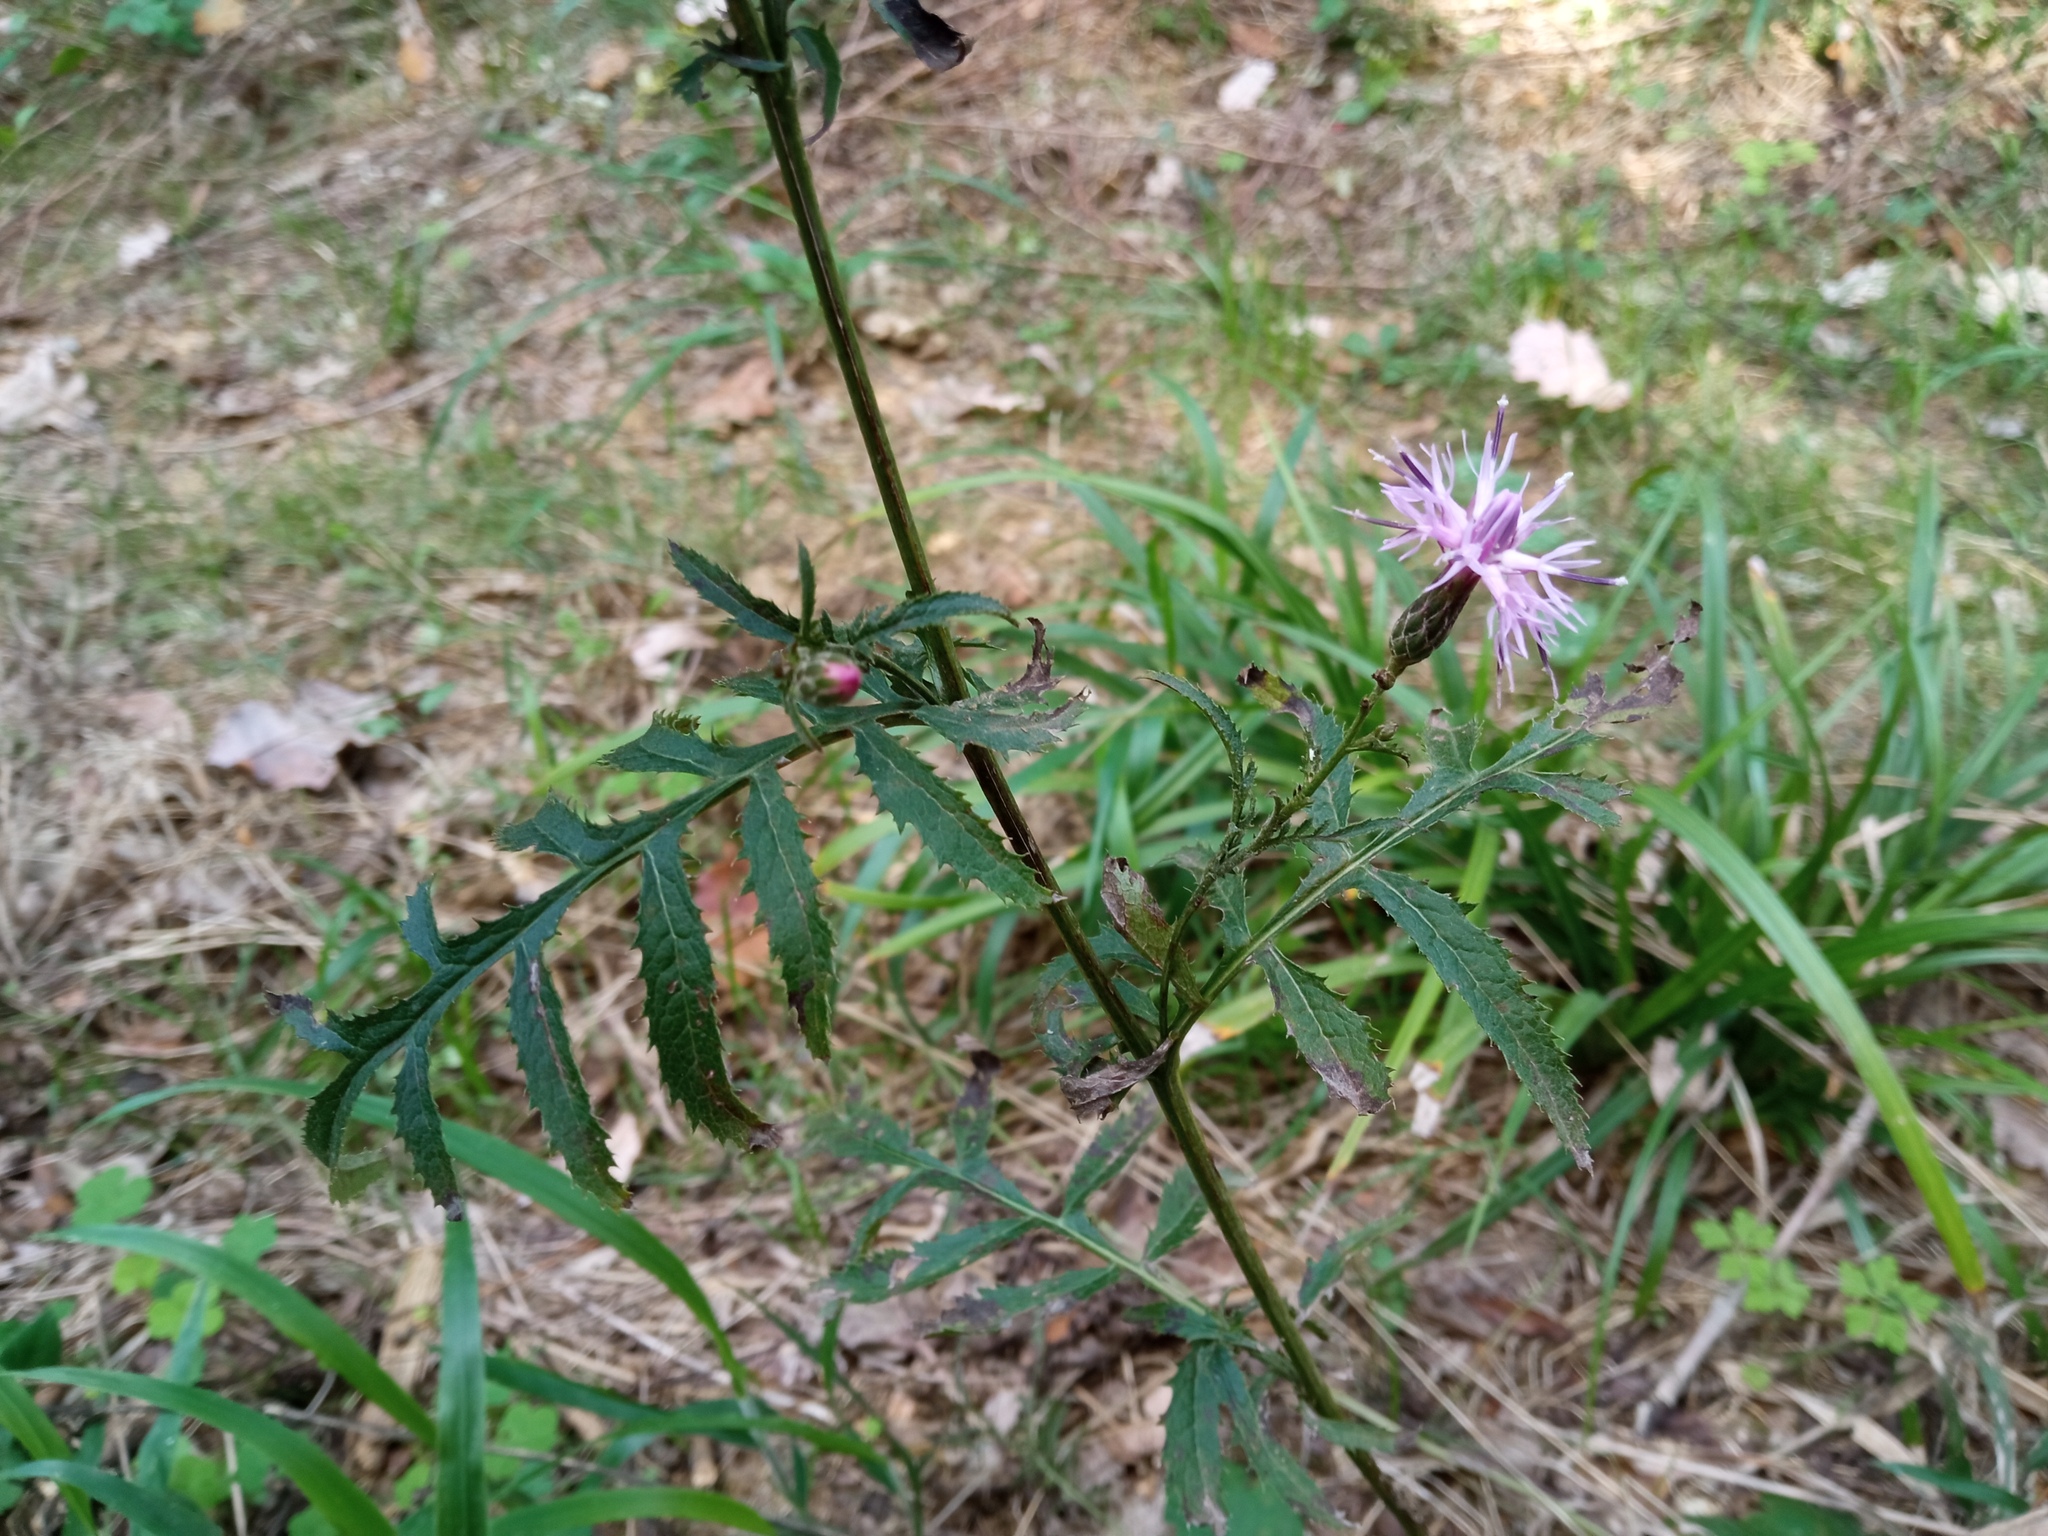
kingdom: Plantae
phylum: Tracheophyta
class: Magnoliopsida
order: Asterales
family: Asteraceae
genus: Serratula
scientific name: Serratula tinctoria
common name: Saw-wort
